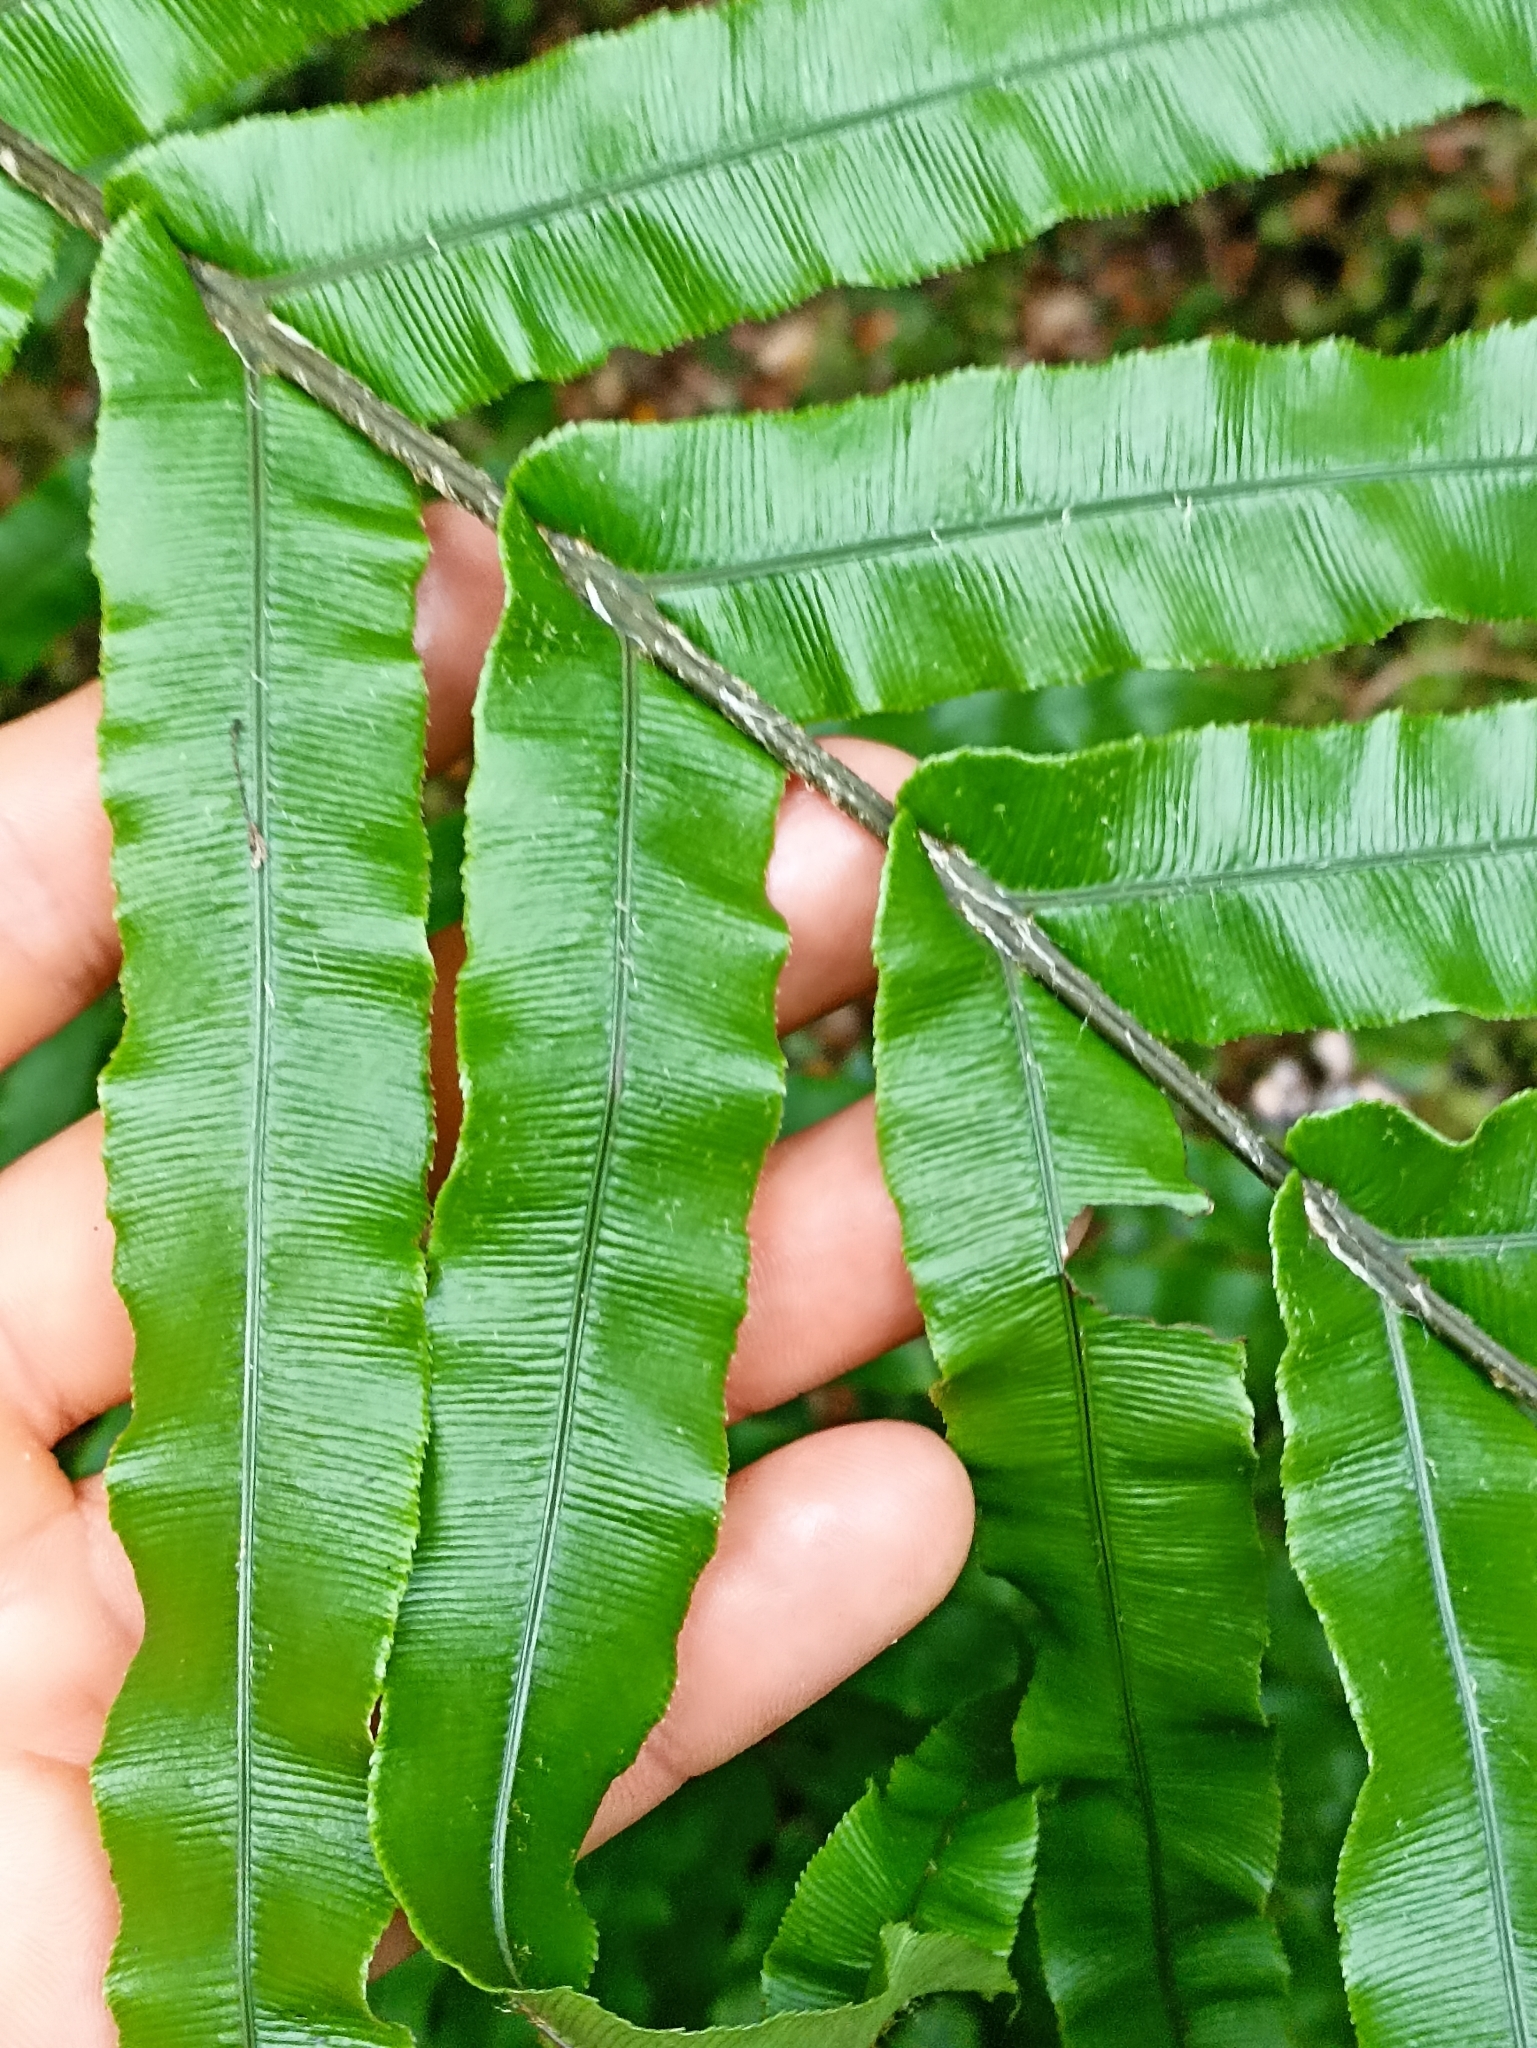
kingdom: Plantae
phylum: Tracheophyta
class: Polypodiopsida
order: Polypodiales
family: Blechnaceae
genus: Parablechnum
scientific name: Parablechnum novae-zelandiae
